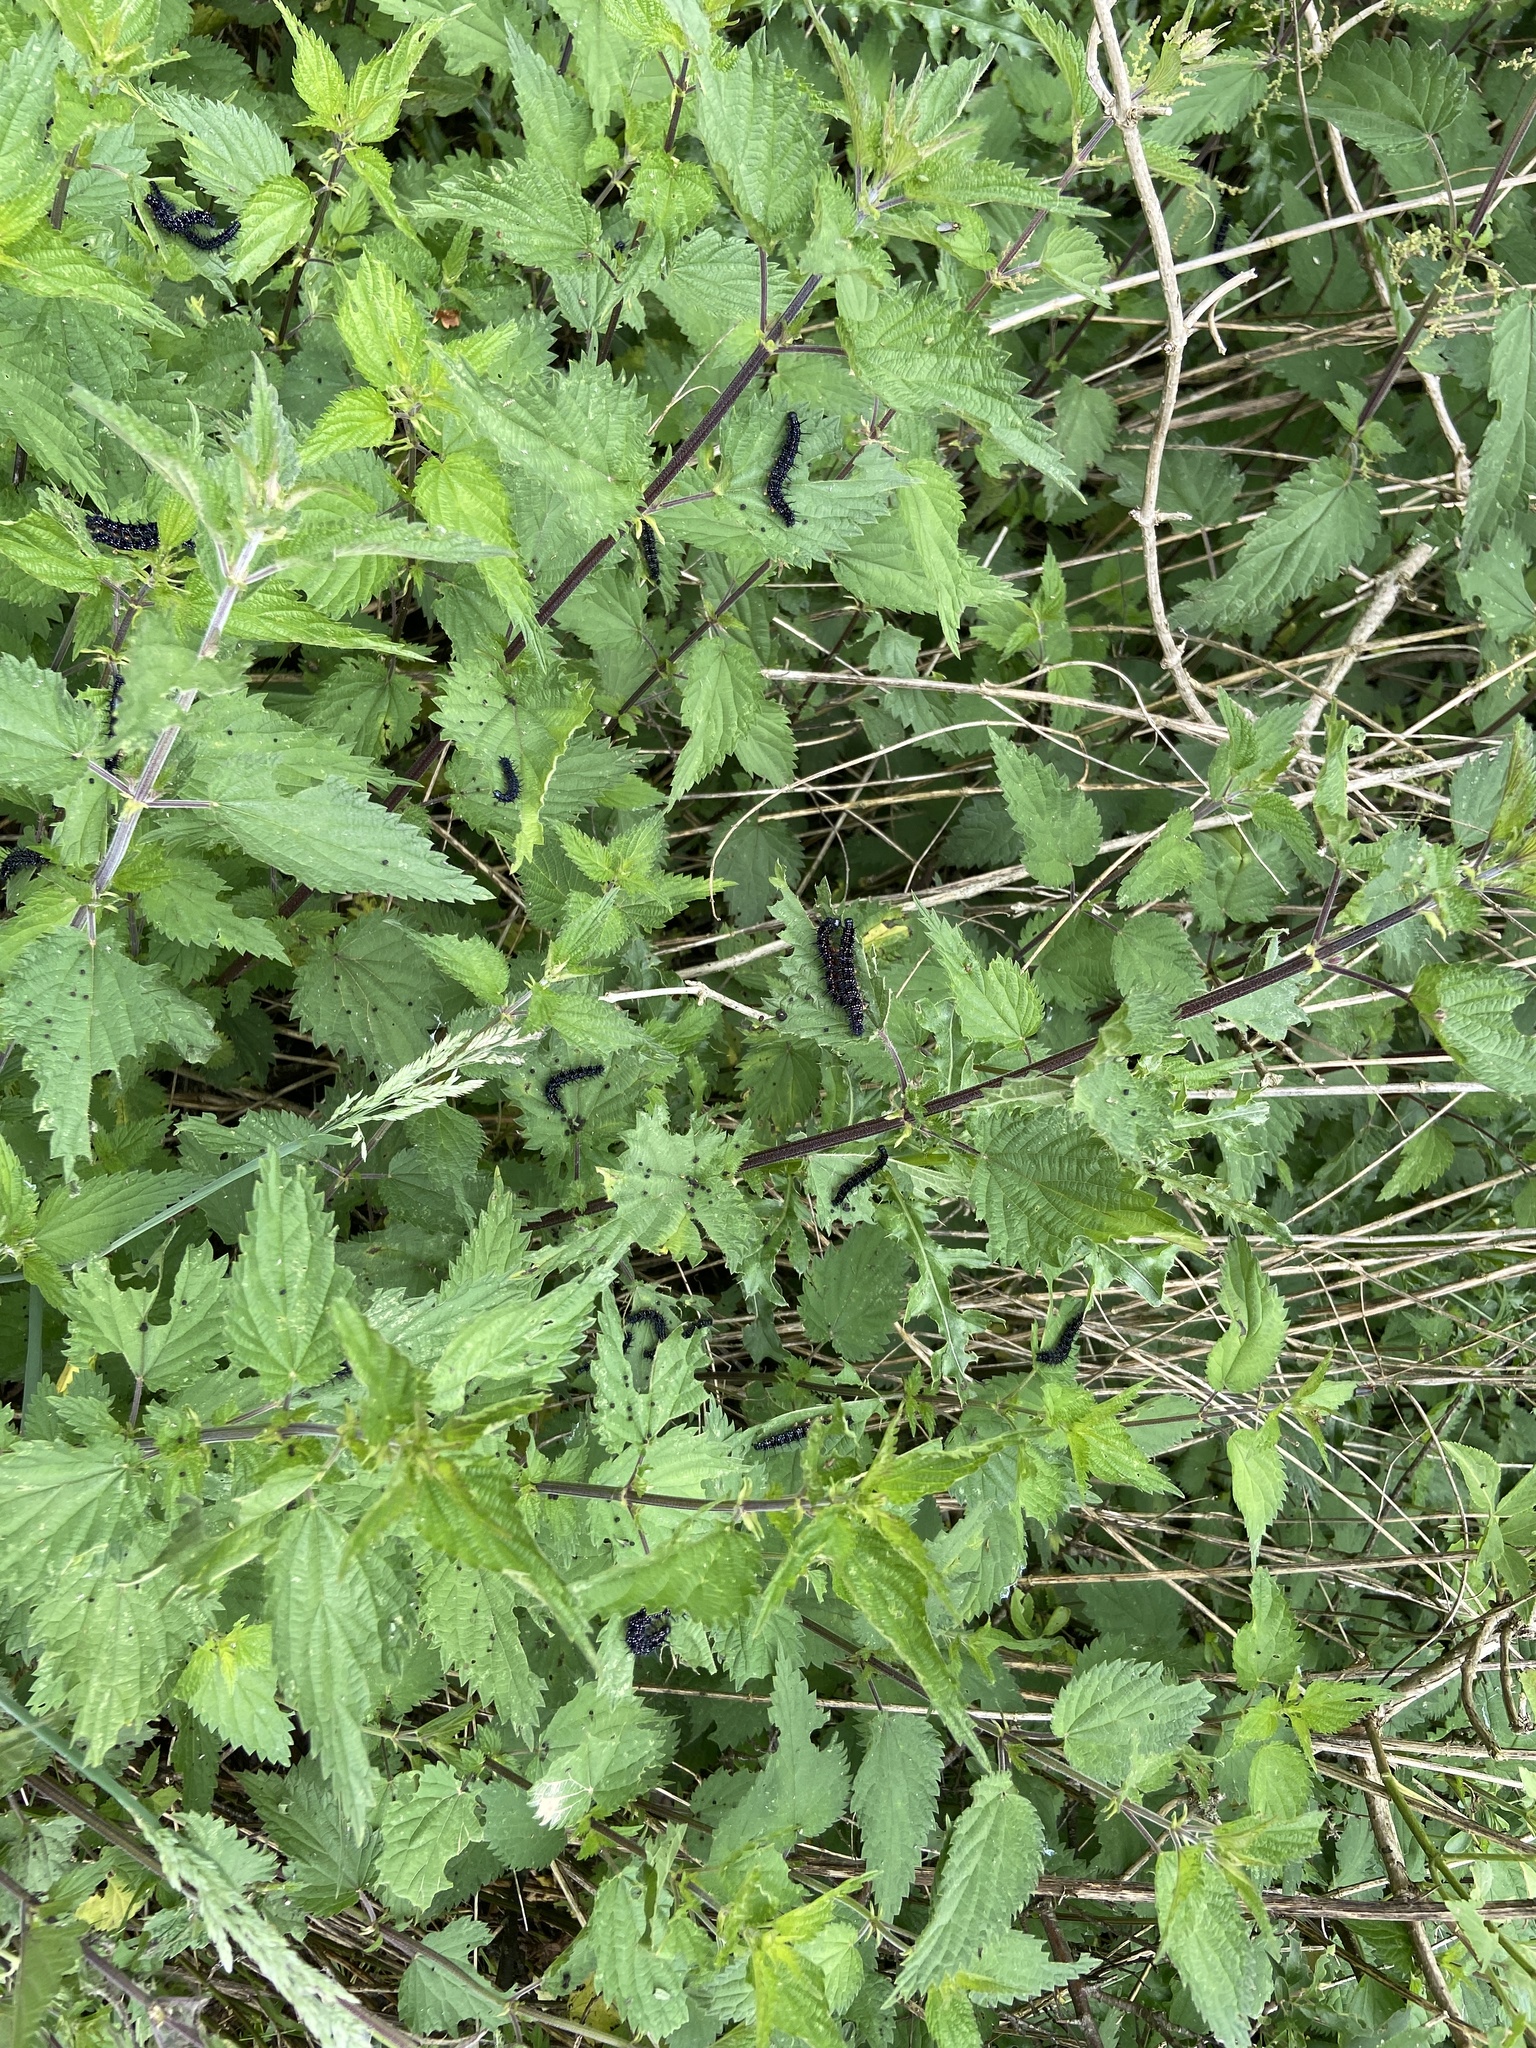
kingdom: Animalia
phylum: Arthropoda
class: Insecta
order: Lepidoptera
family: Nymphalidae
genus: Aglais
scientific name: Aglais io
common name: Peacock
